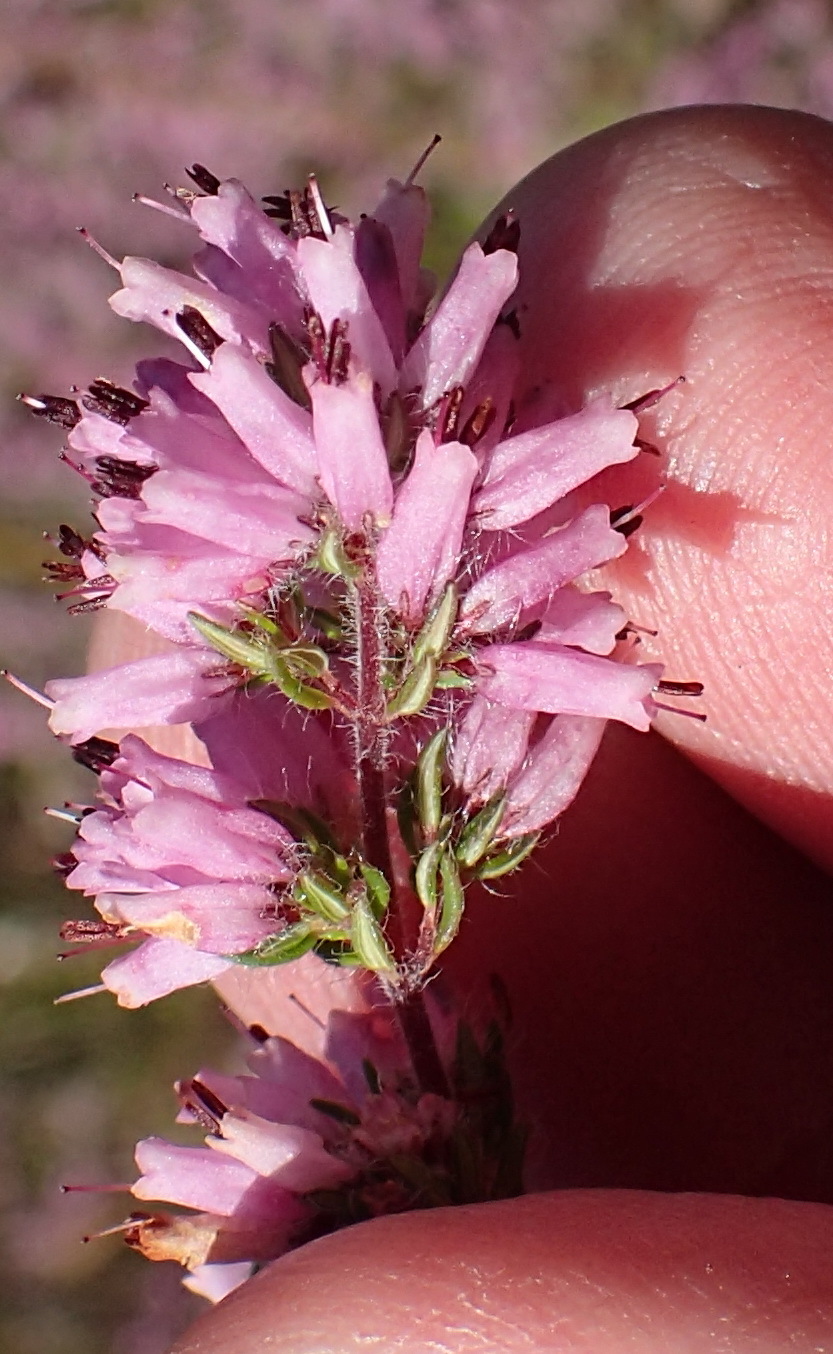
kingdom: Plantae
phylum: Tracheophyta
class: Magnoliopsida
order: Ericales
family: Ericaceae
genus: Erica
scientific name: Erica longimontana
